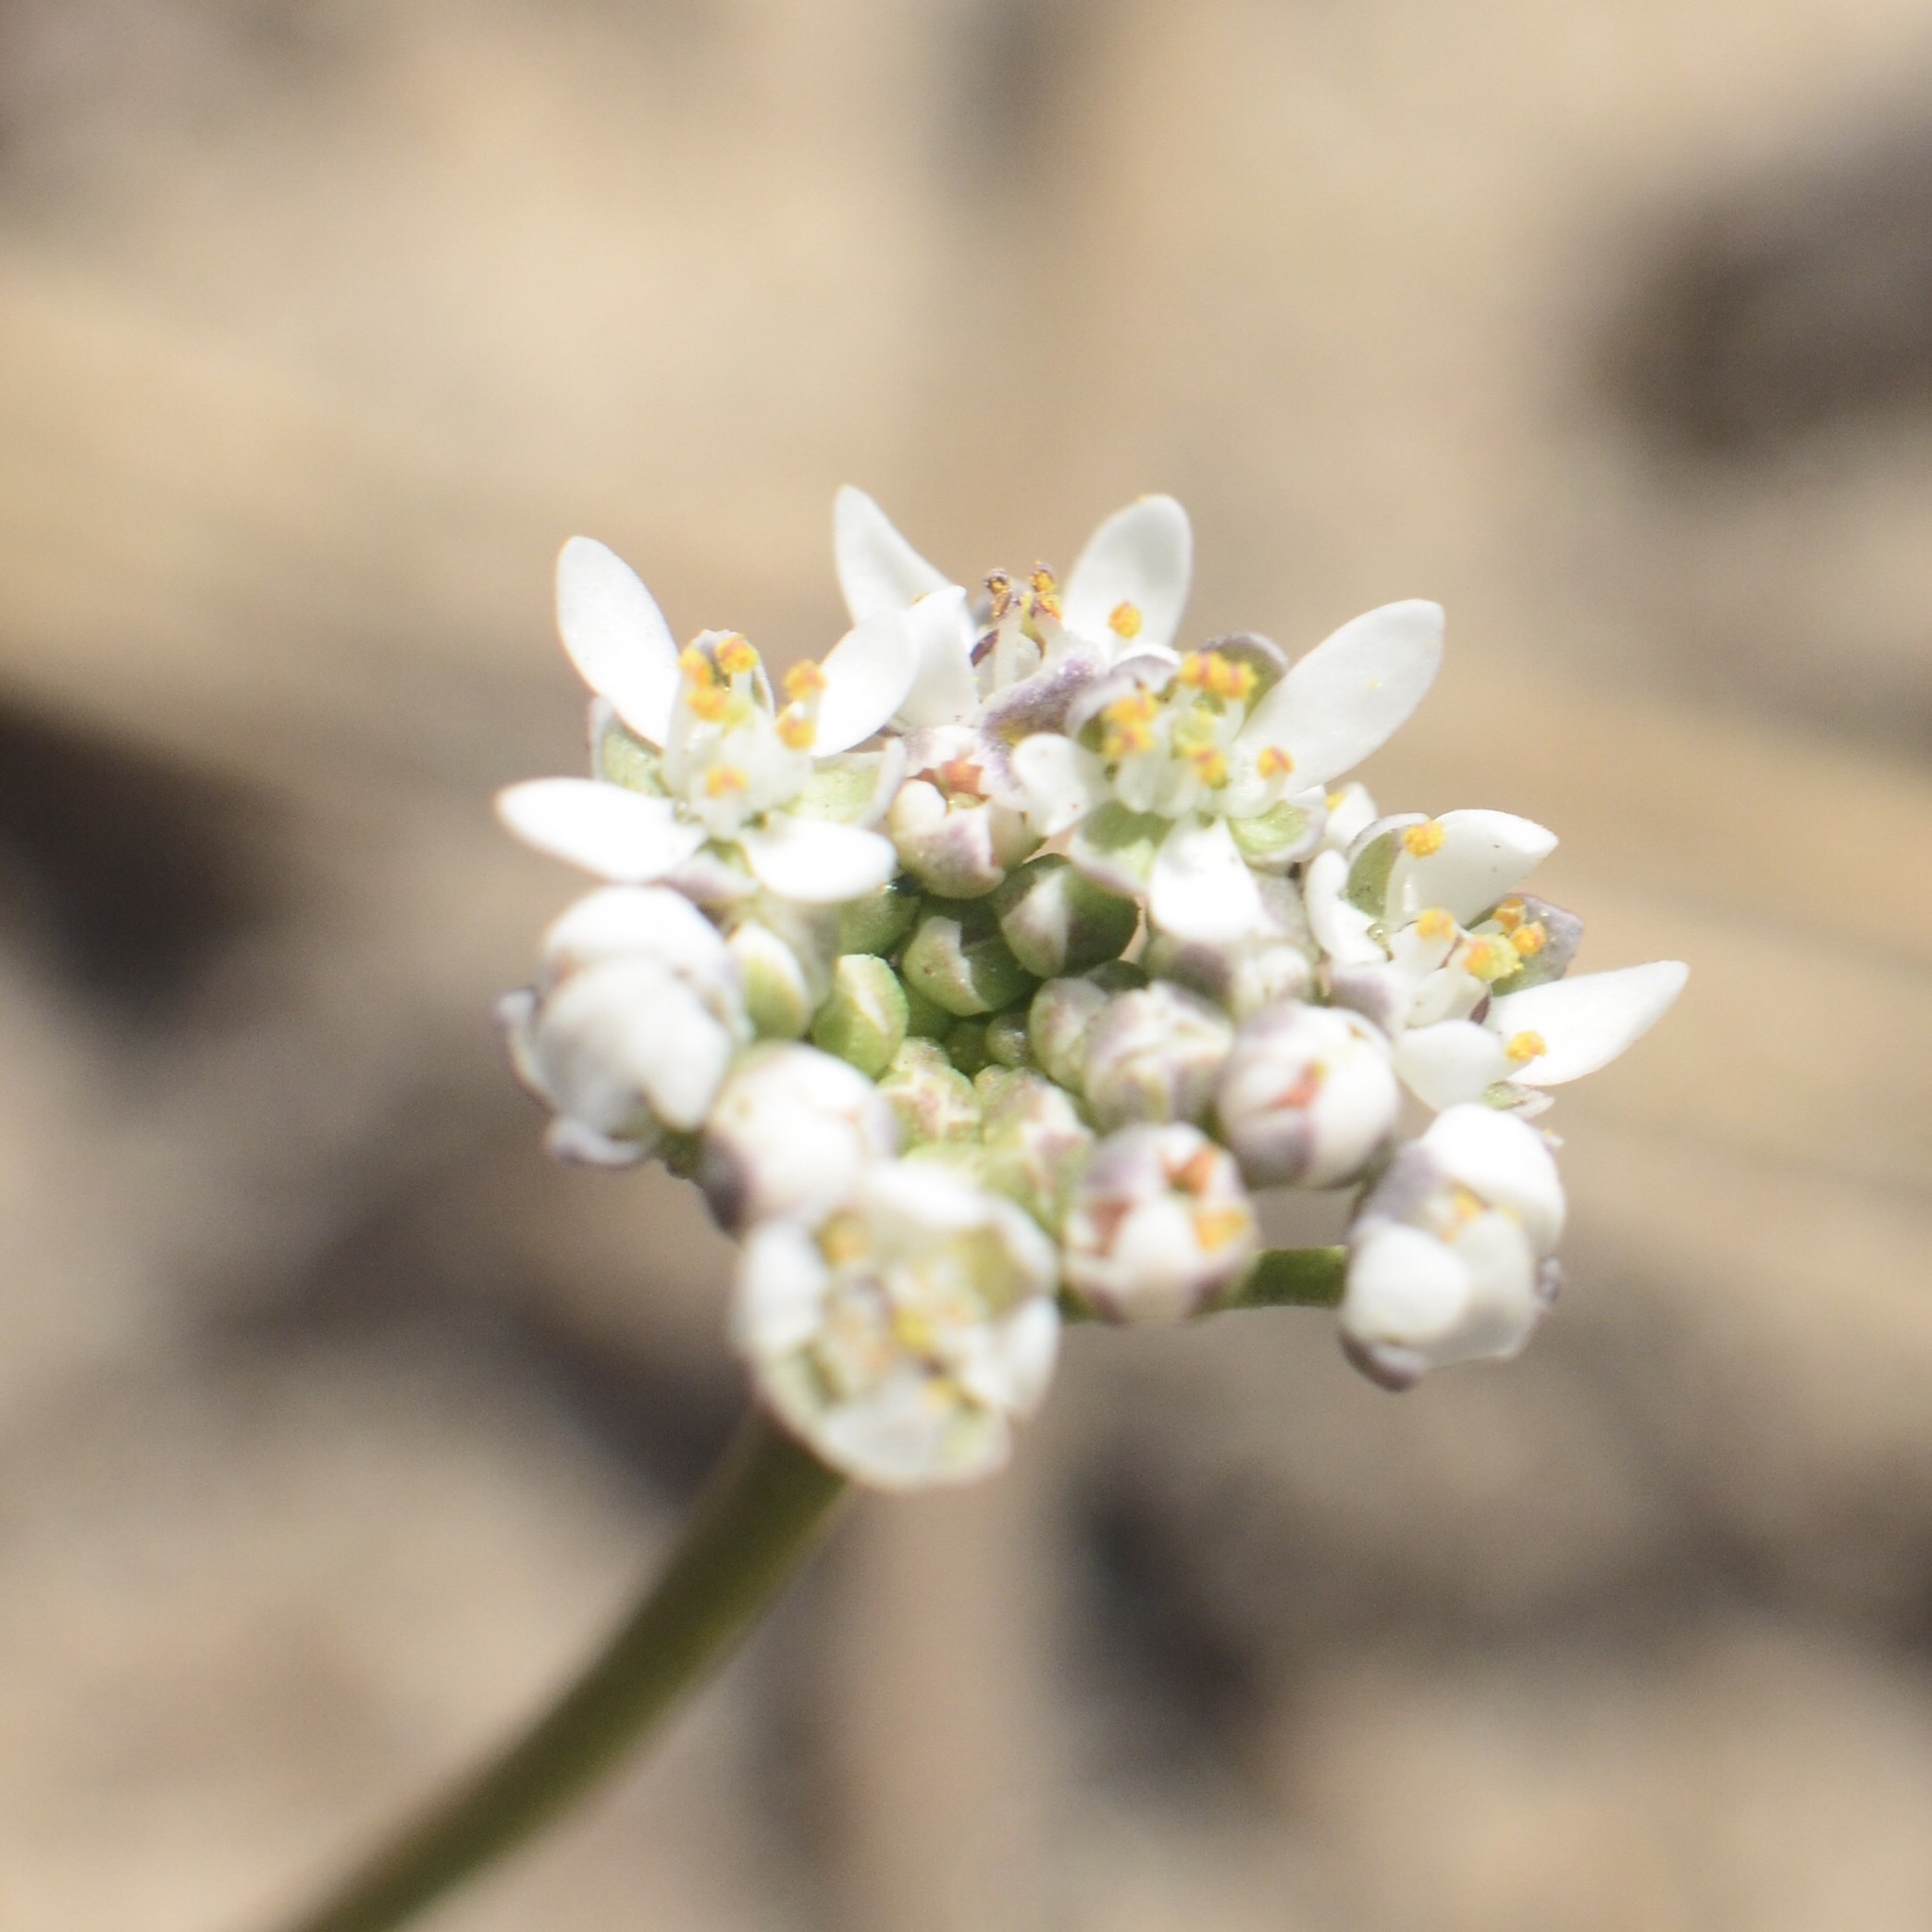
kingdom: Plantae
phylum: Tracheophyta
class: Magnoliopsida
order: Brassicales
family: Brassicaceae
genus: Teesdalia
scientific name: Teesdalia nudicaulis
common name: Shepherd's cress
